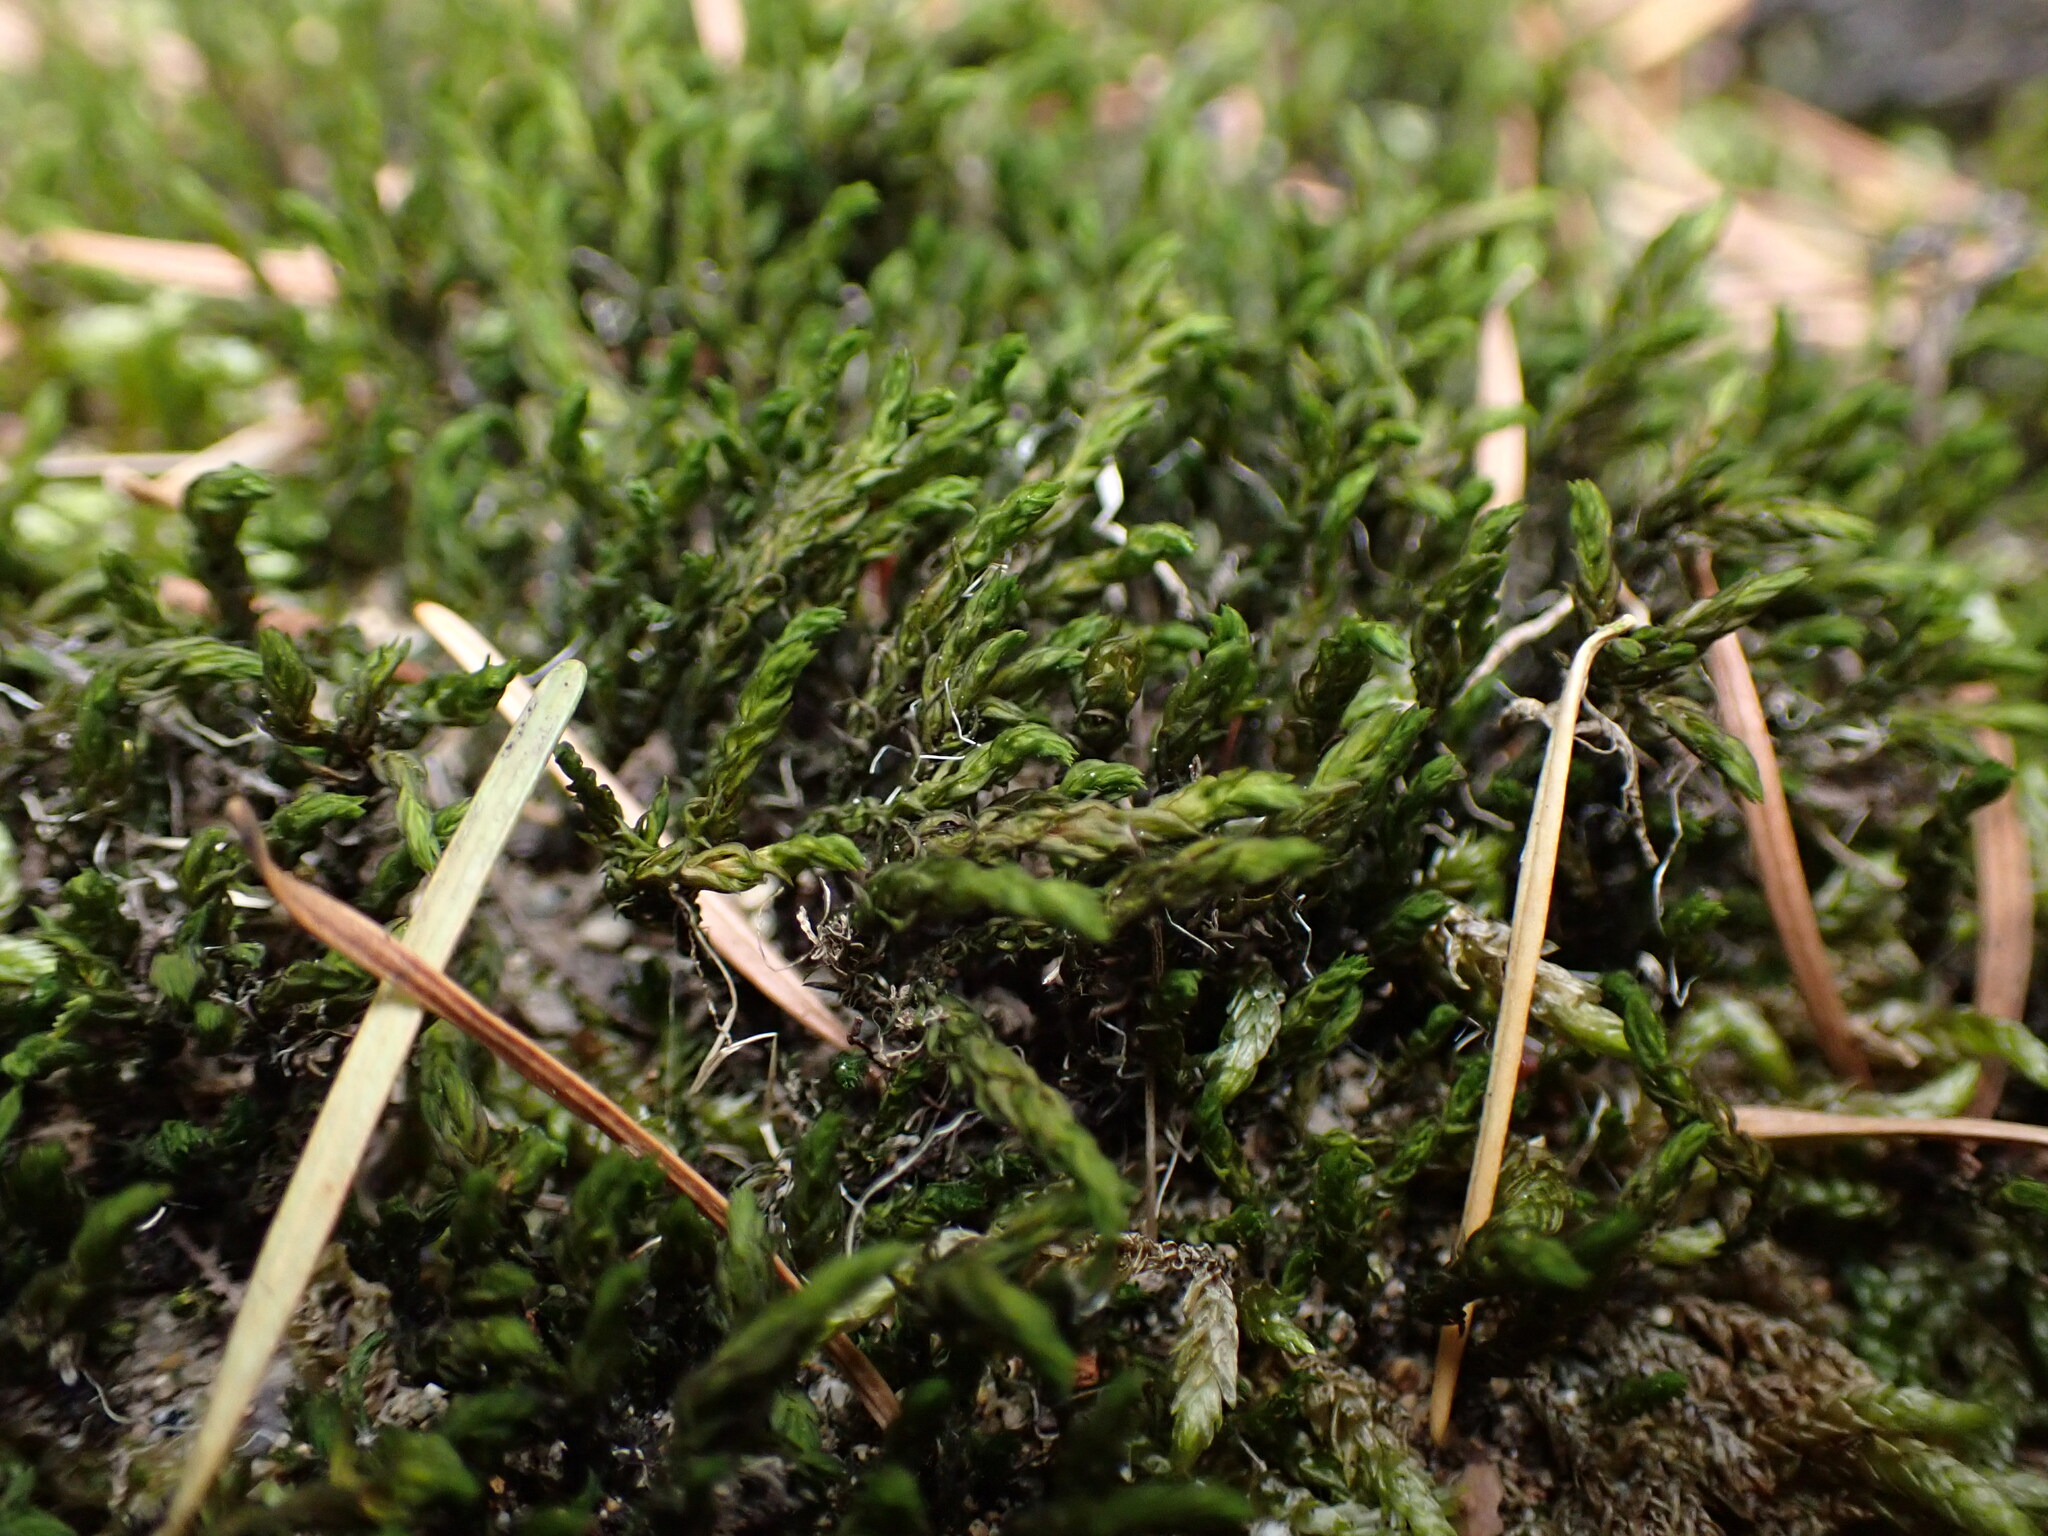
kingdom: Plantae
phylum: Bryophyta
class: Bryopsida
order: Grimmiales
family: Grimmiaceae
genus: Codriophorus
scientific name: Codriophorus acicularis
